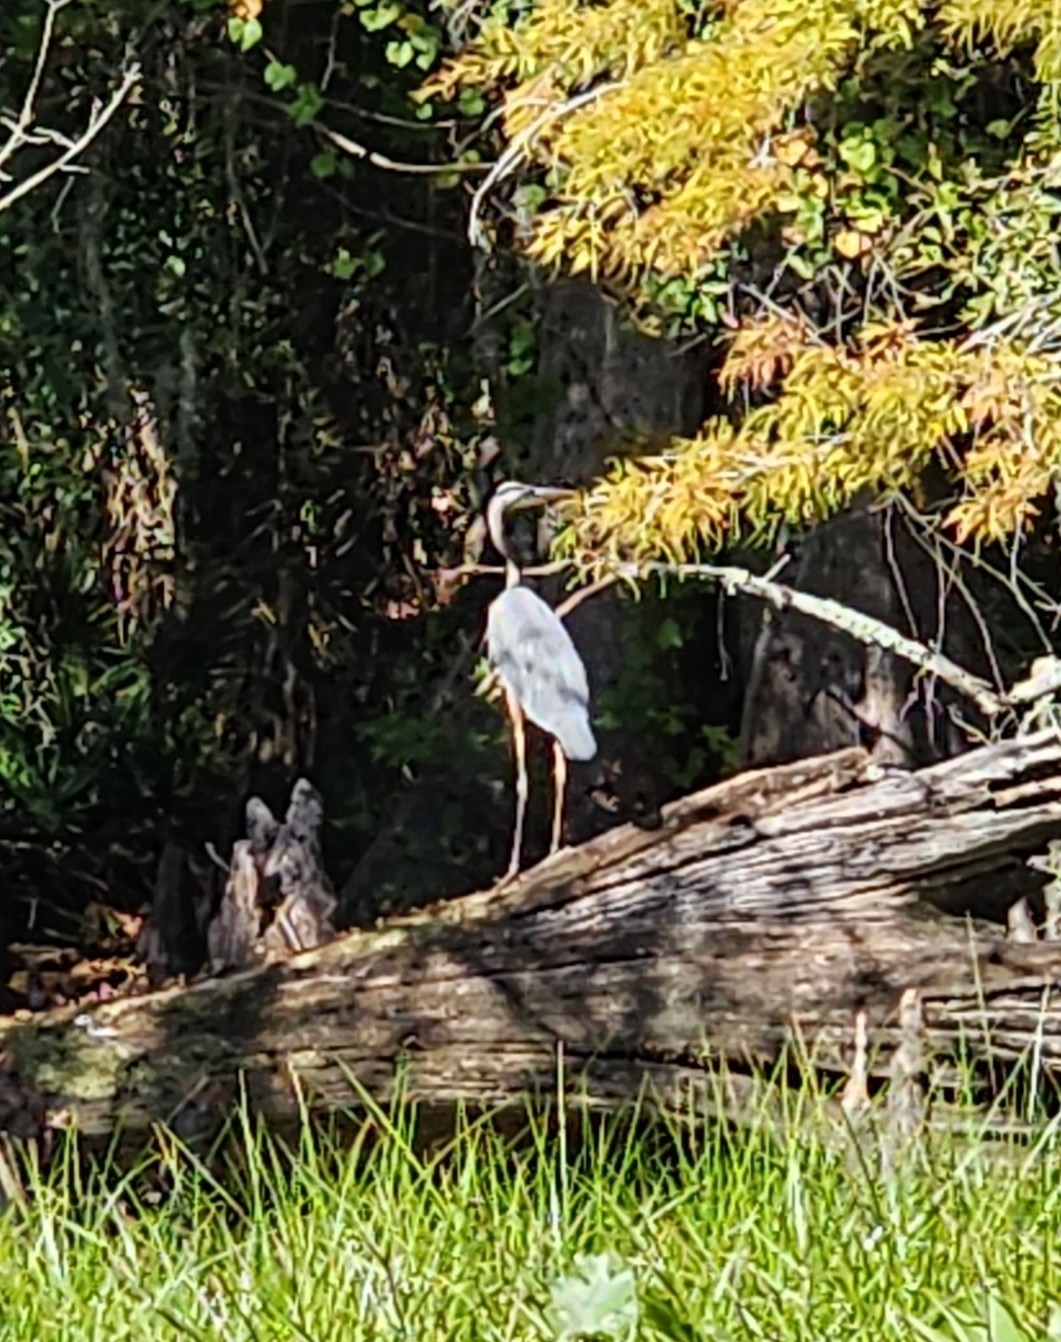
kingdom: Animalia
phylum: Chordata
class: Aves
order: Pelecaniformes
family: Ardeidae
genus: Ardea
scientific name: Ardea herodias
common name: Great blue heron
